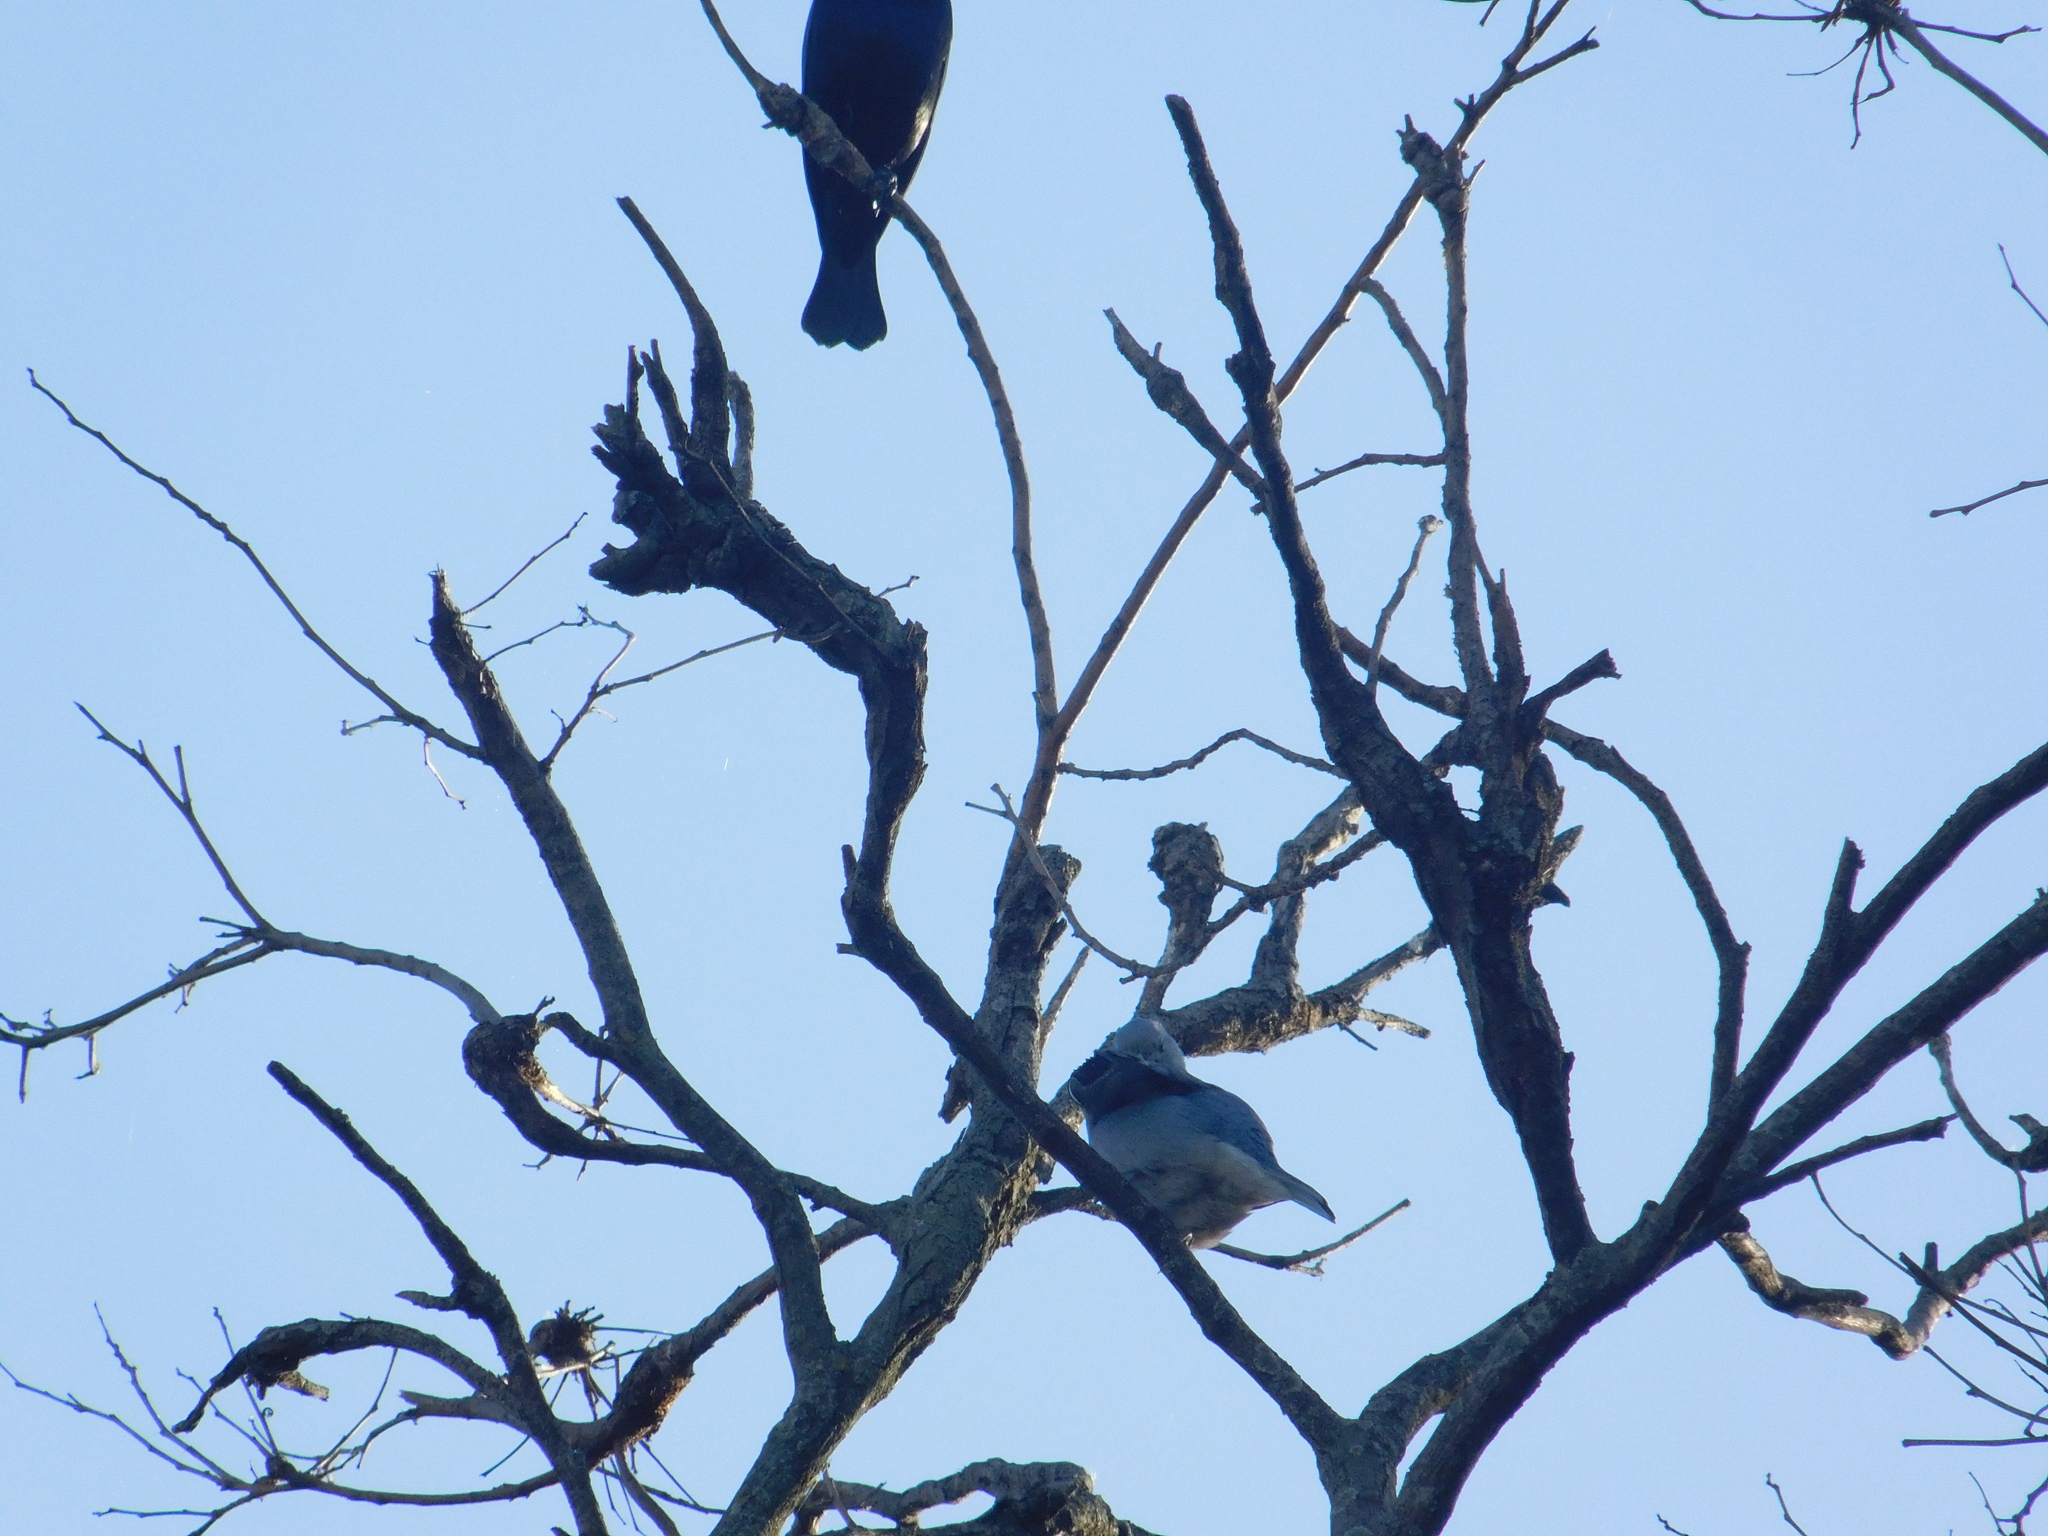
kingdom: Animalia
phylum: Chordata
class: Aves
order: Passeriformes
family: Thraupidae
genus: Thraupis
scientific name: Thraupis sayaca
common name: Sayaca tanager
